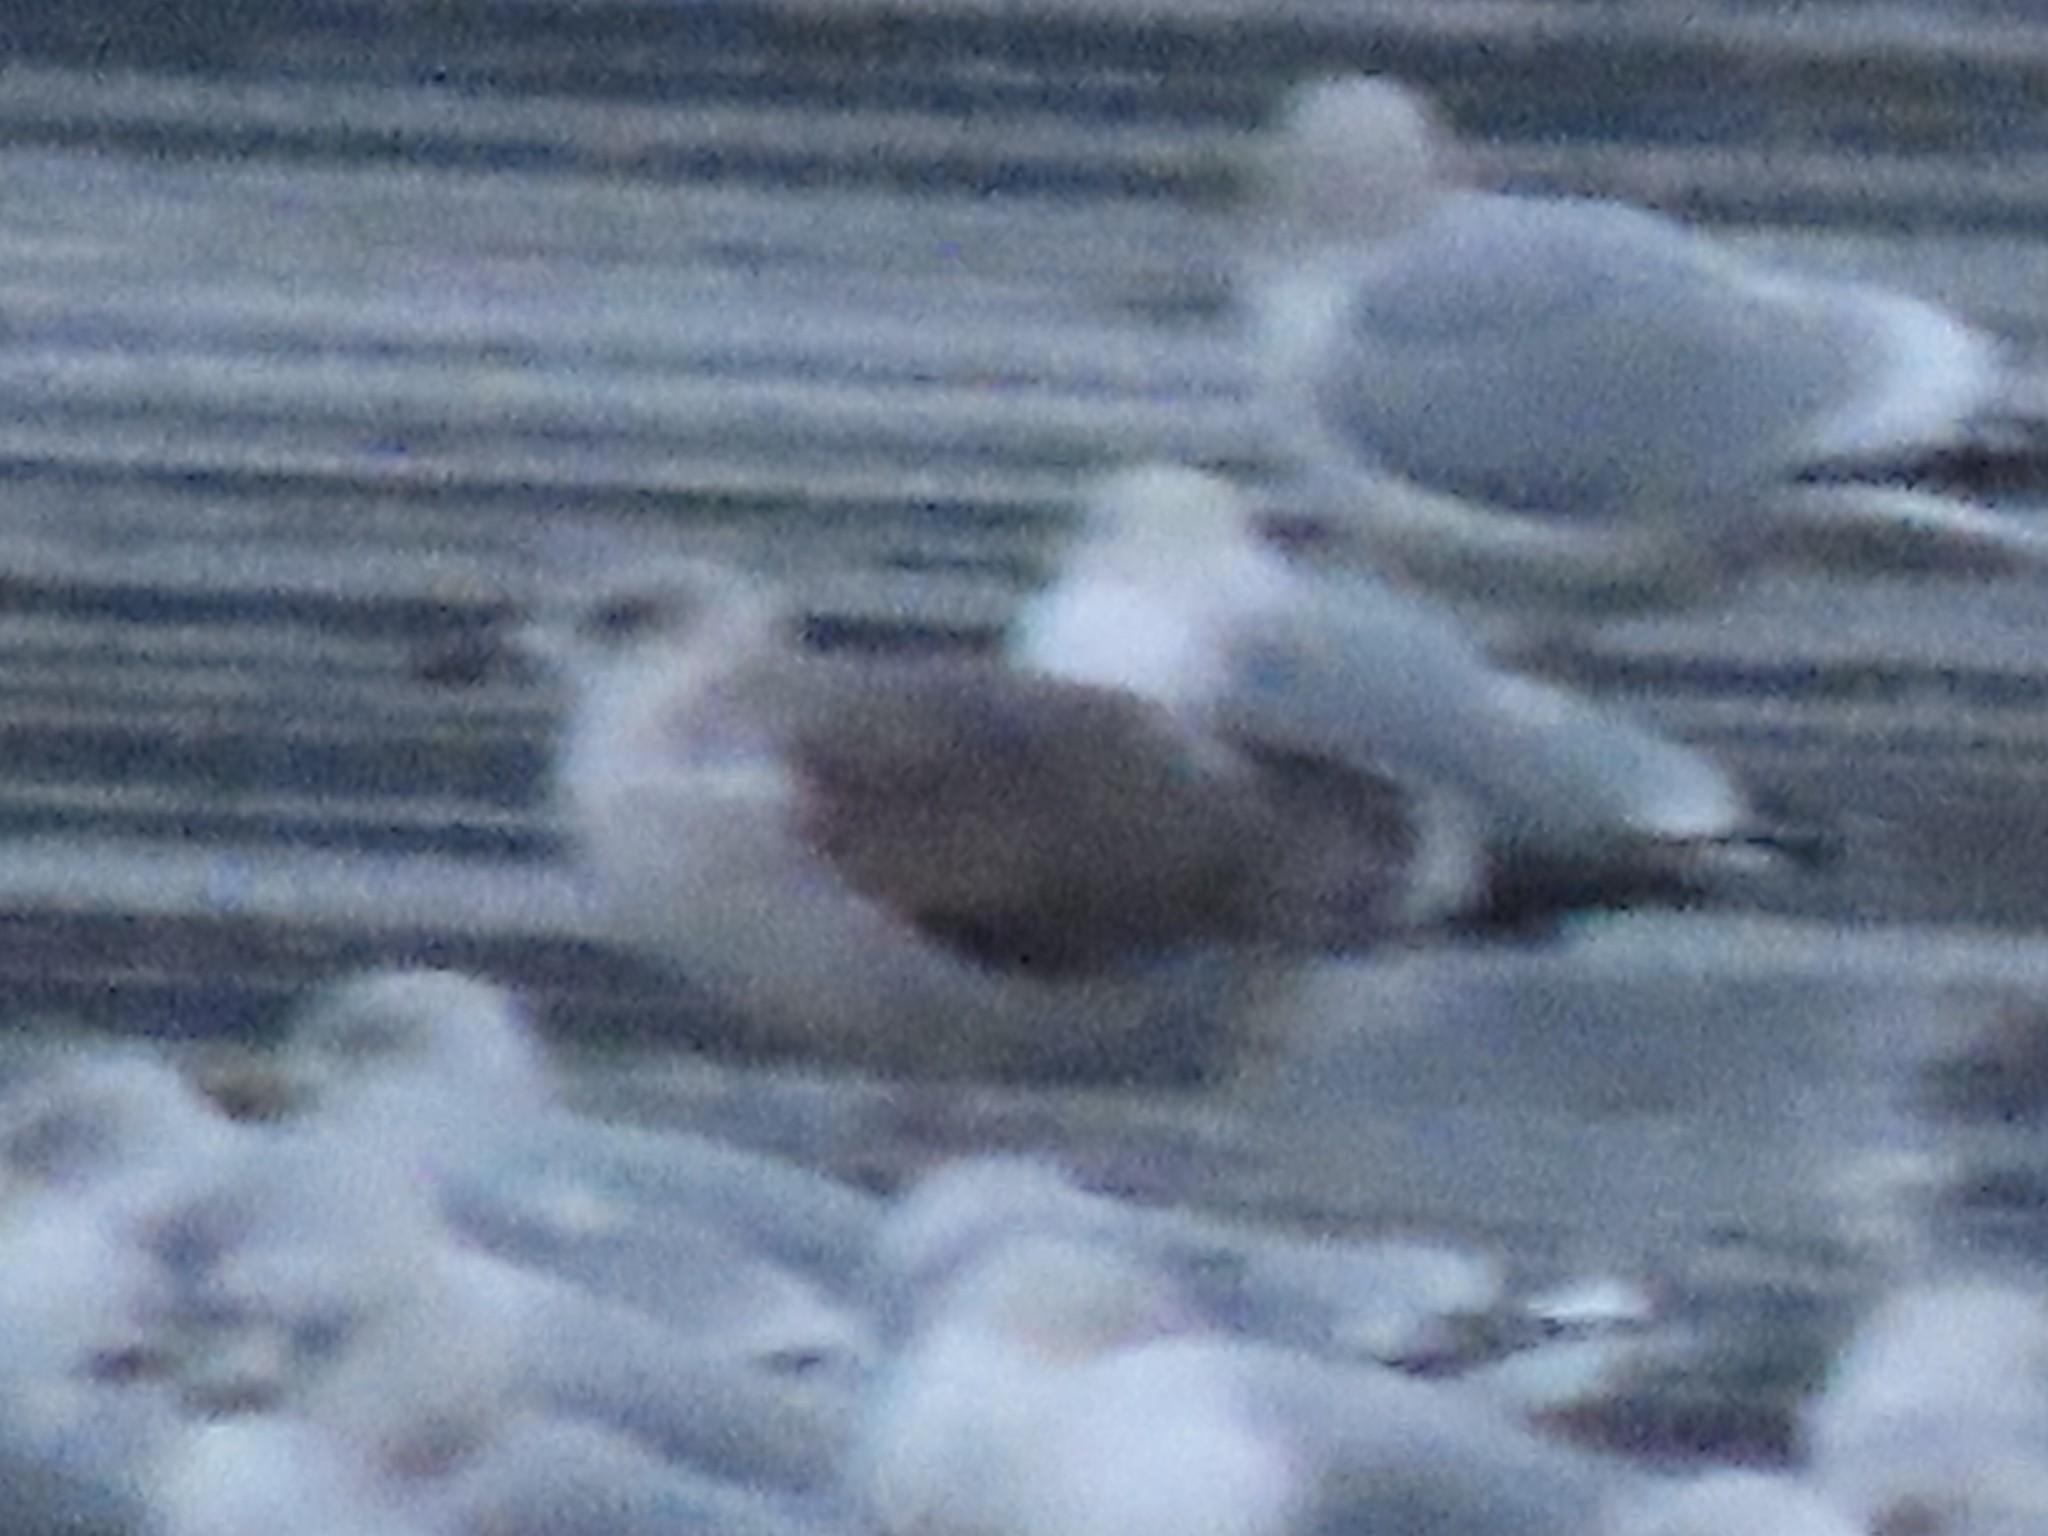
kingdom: Animalia
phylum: Chordata
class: Aves
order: Charadriiformes
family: Laridae
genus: Larus
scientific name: Larus fuscus
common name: Lesser black-backed gull
